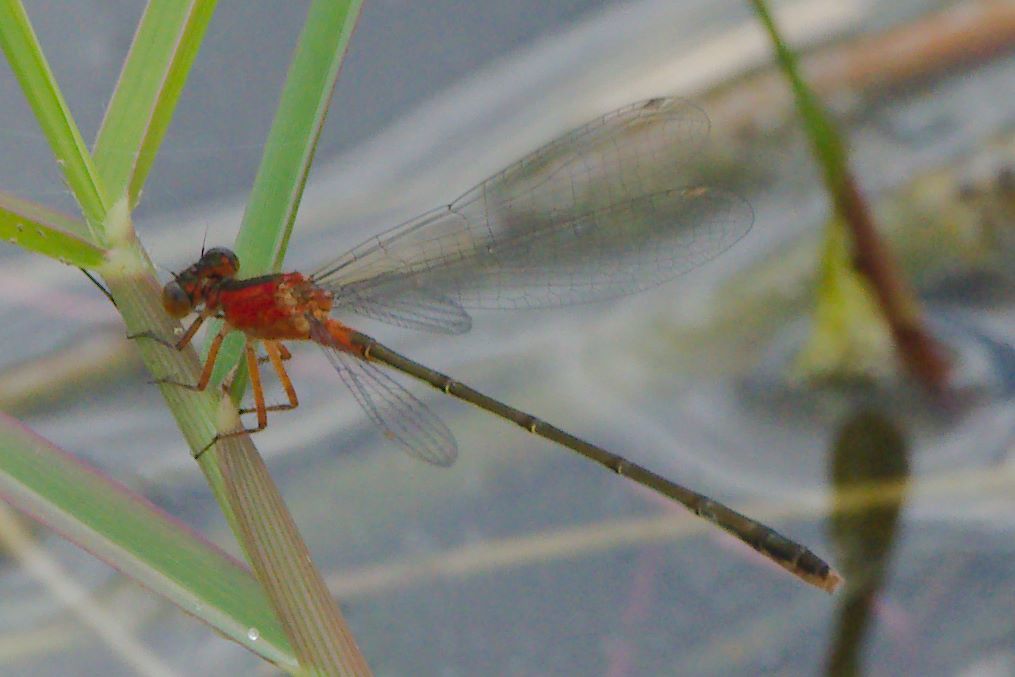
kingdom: Animalia
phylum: Arthropoda
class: Insecta
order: Odonata
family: Coenagrionidae
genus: Ischnura
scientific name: Ischnura ramburii
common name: Rambur's forktail
